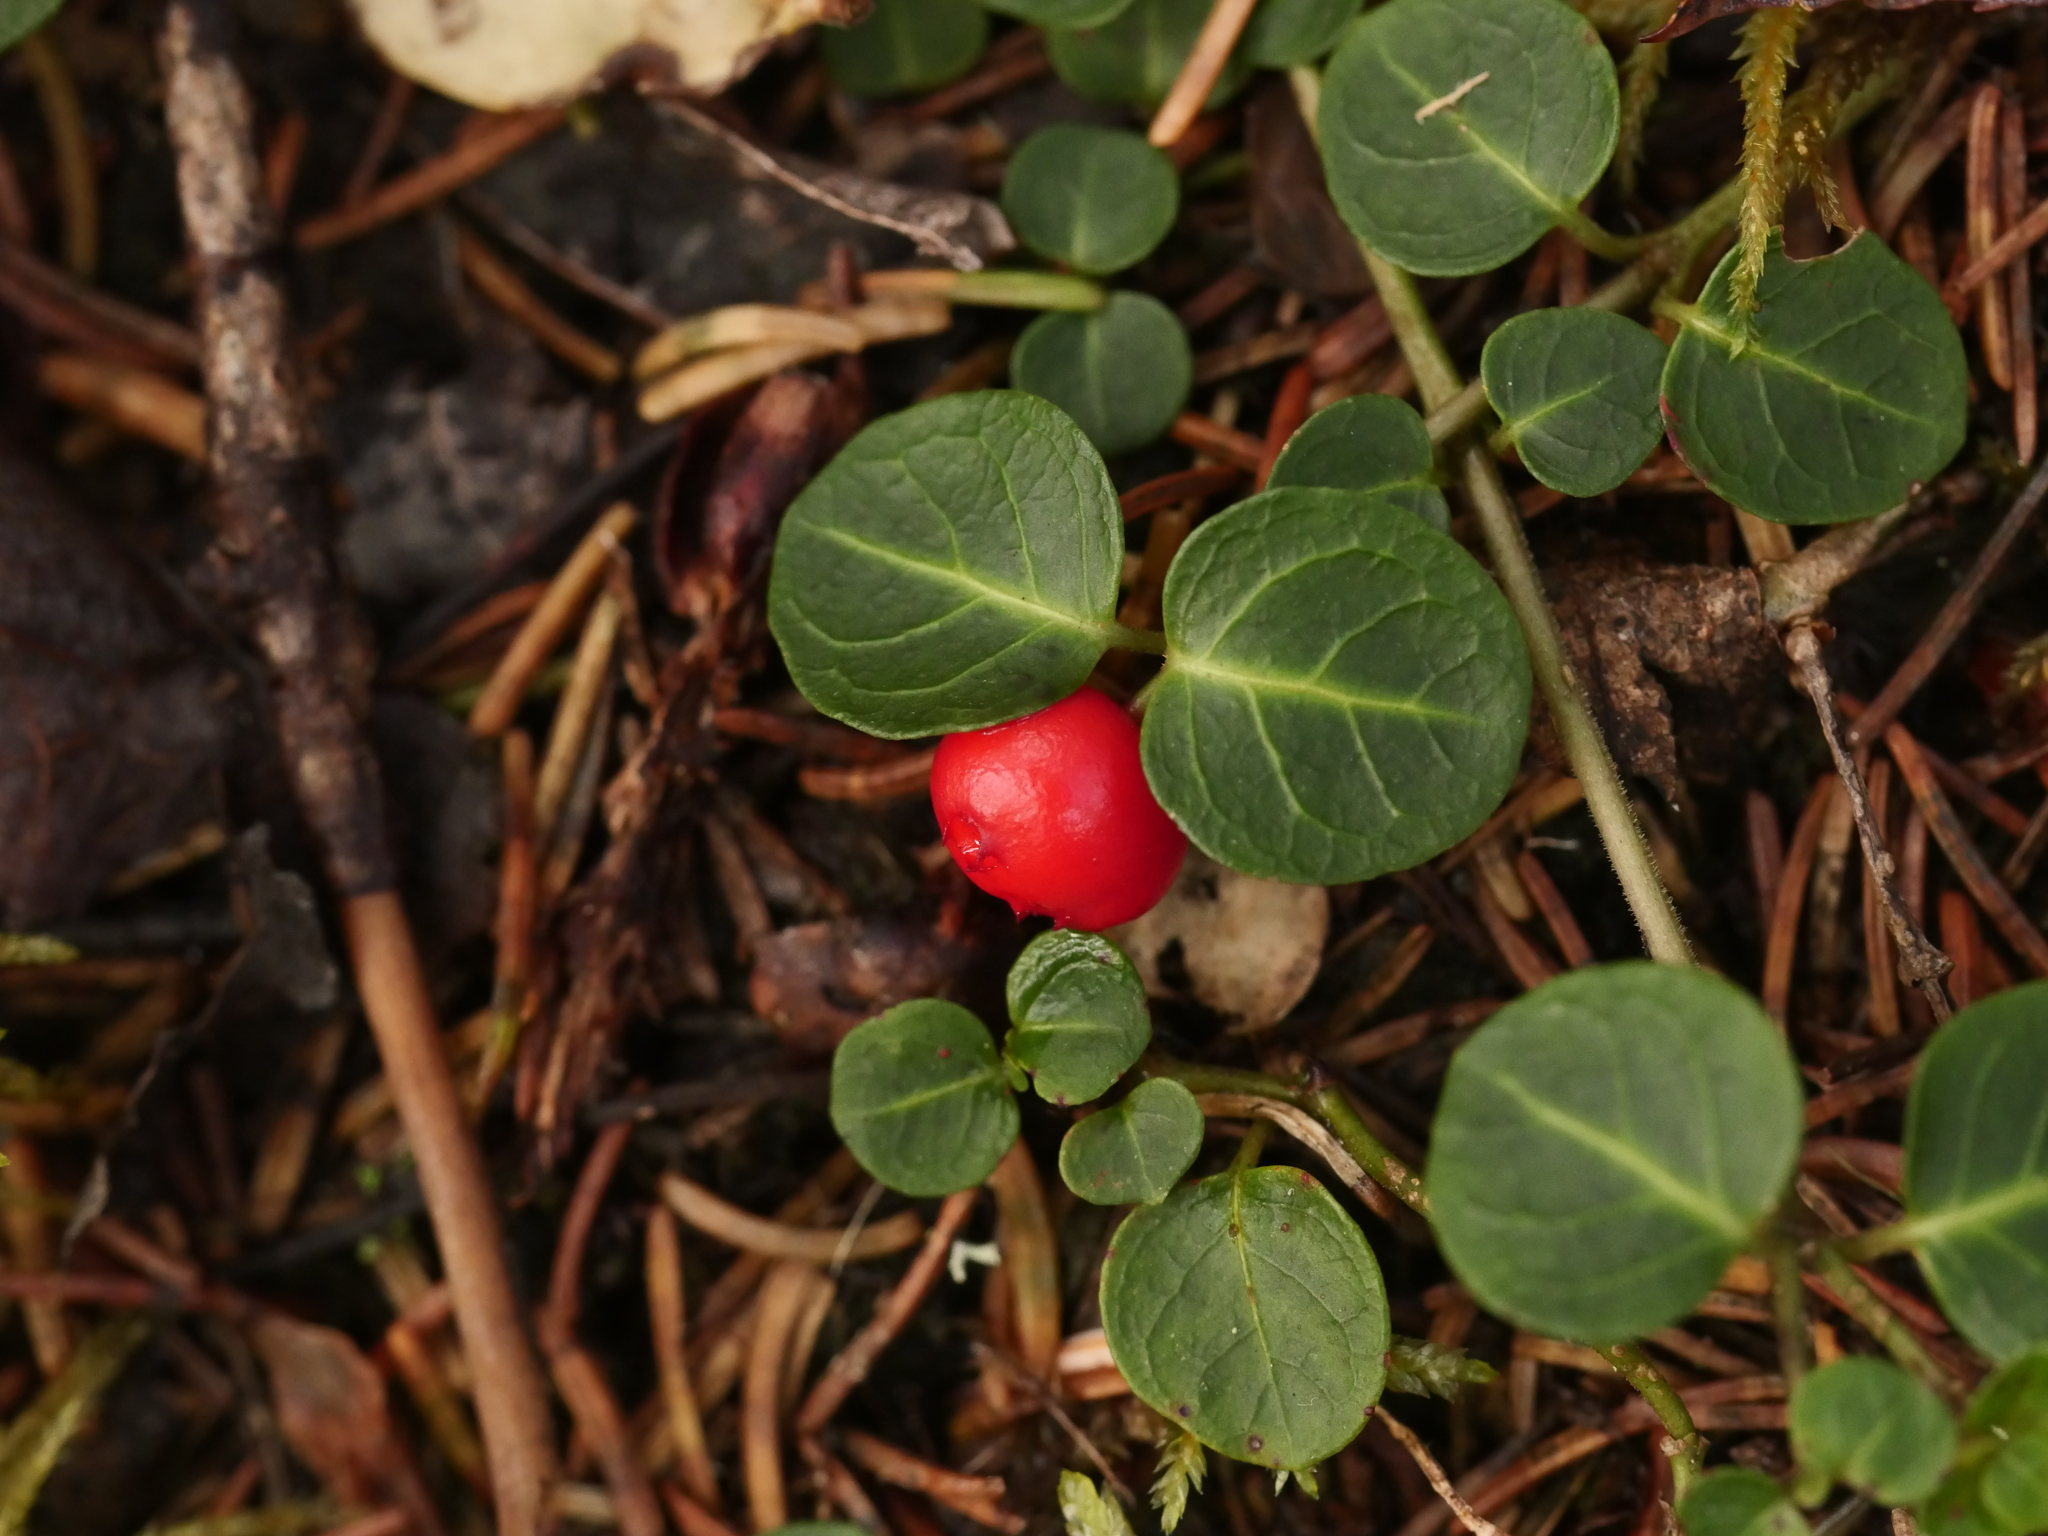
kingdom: Plantae
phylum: Tracheophyta
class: Magnoliopsida
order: Gentianales
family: Rubiaceae
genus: Mitchella
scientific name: Mitchella repens
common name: Partridge-berry
